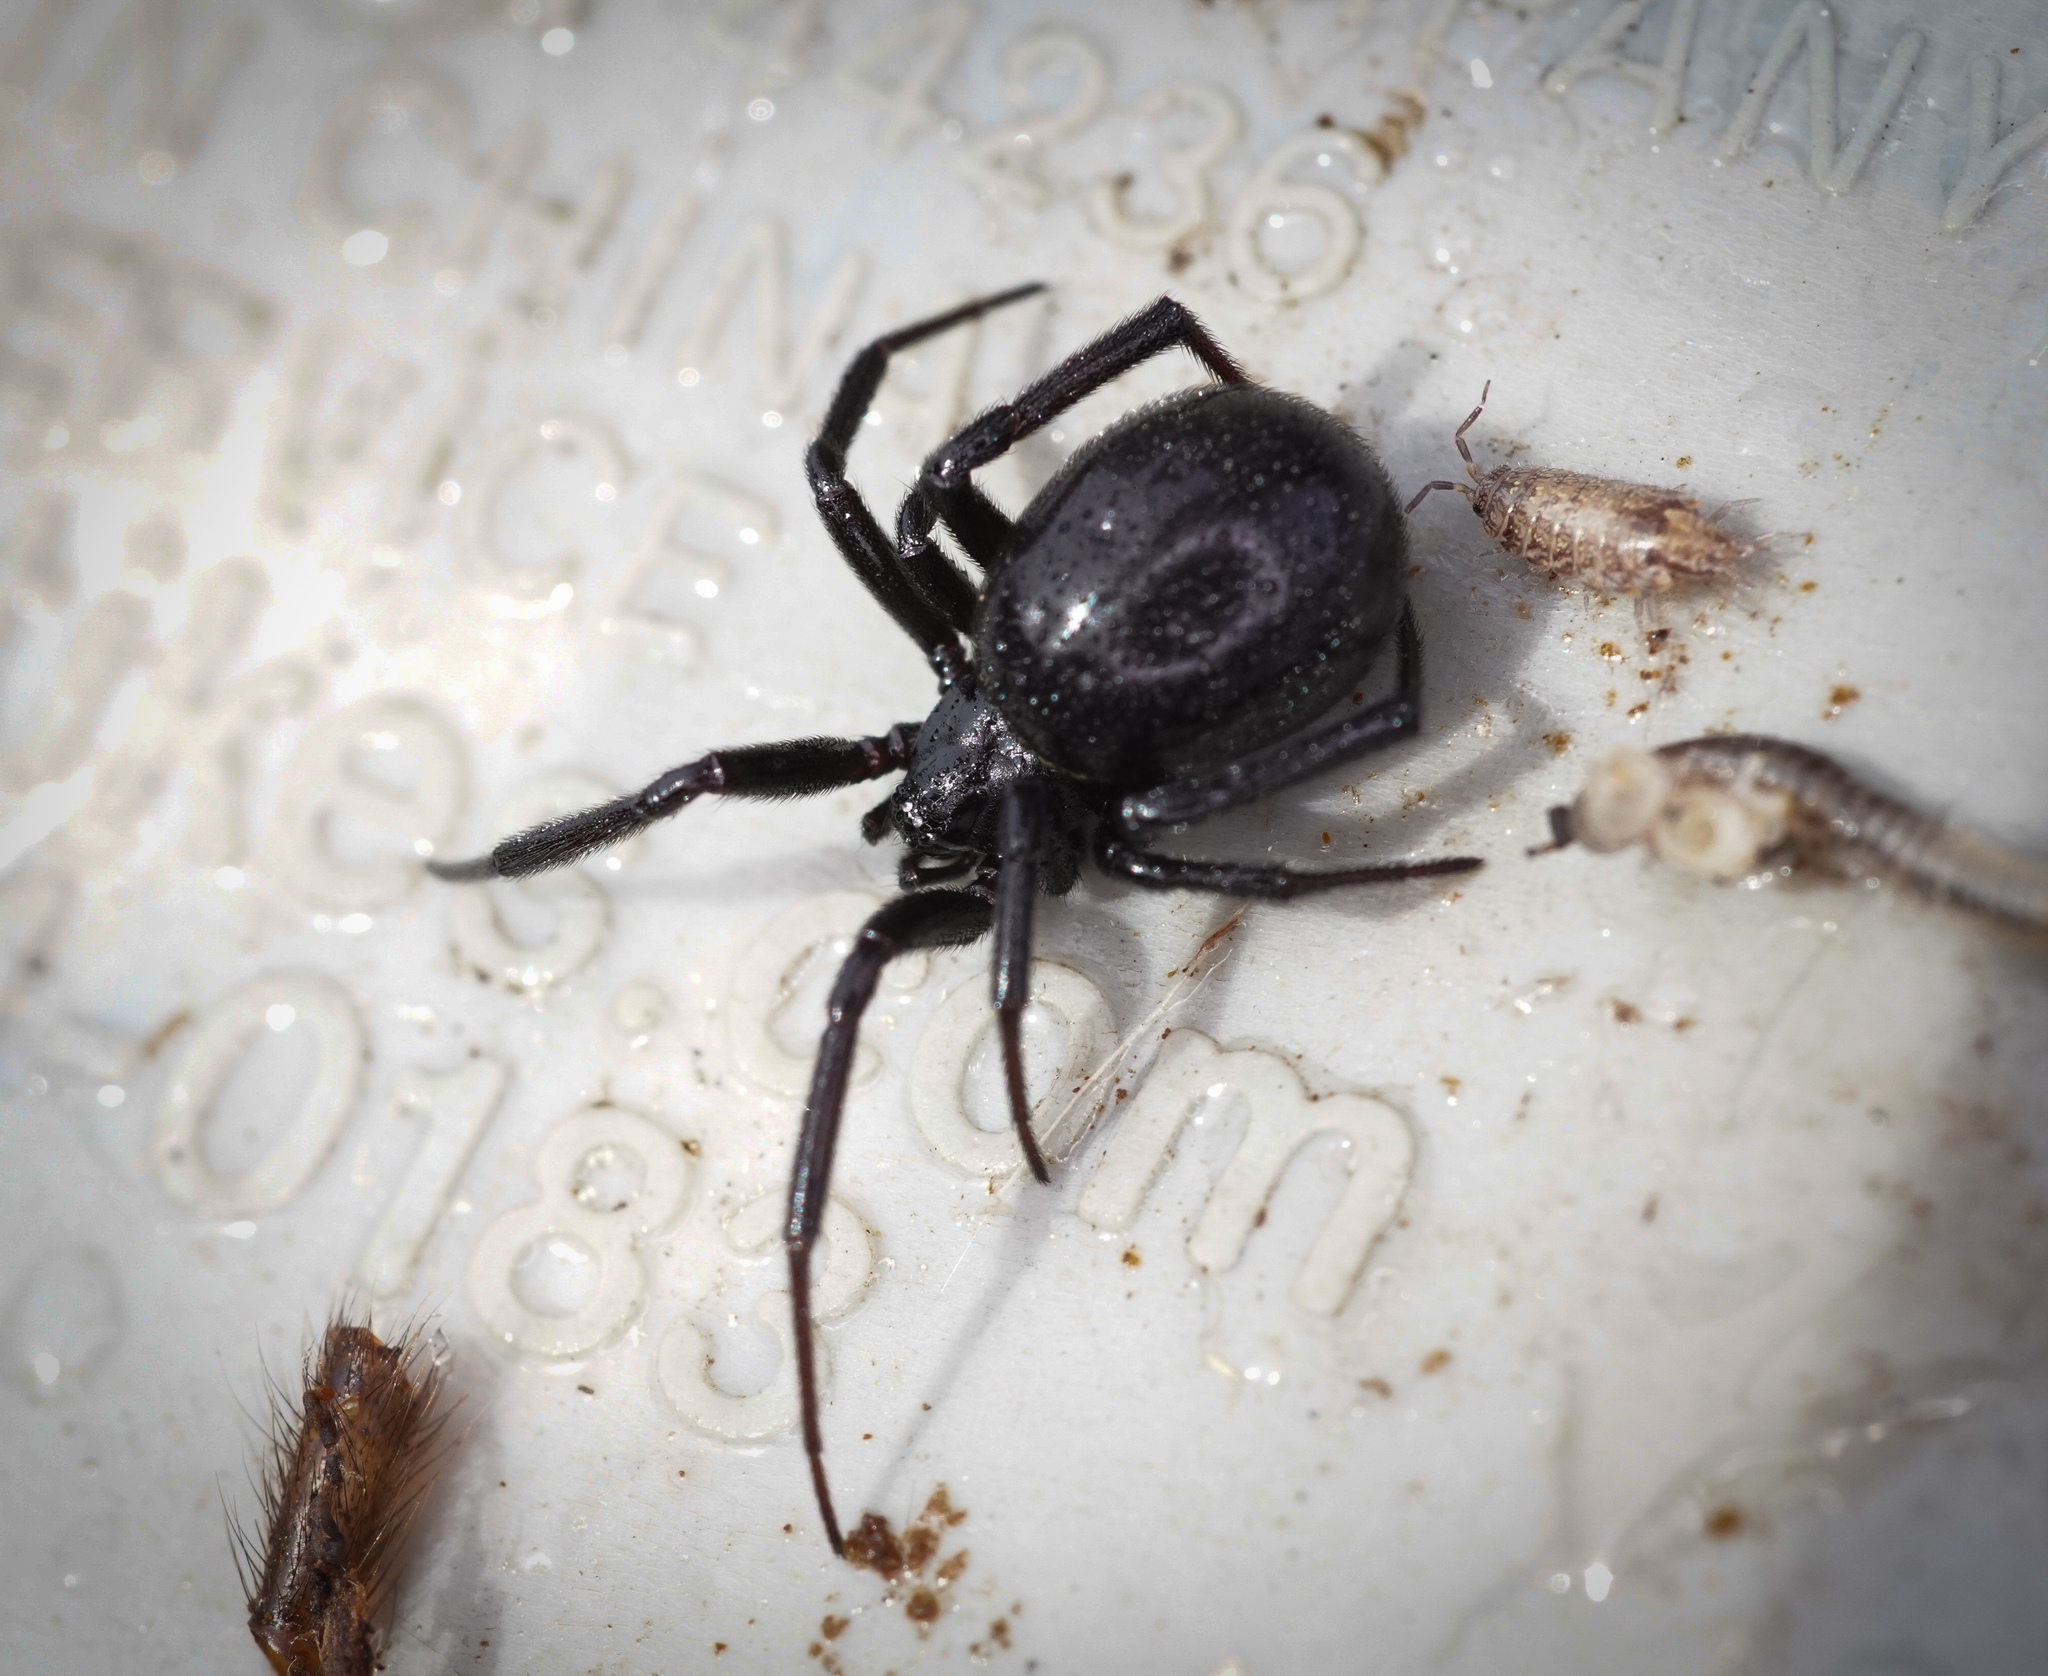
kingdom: Animalia
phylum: Arthropoda
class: Arachnida
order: Araneae
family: Theridiidae
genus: Steatoda
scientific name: Steatoda capensis
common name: Cobweb weaver
